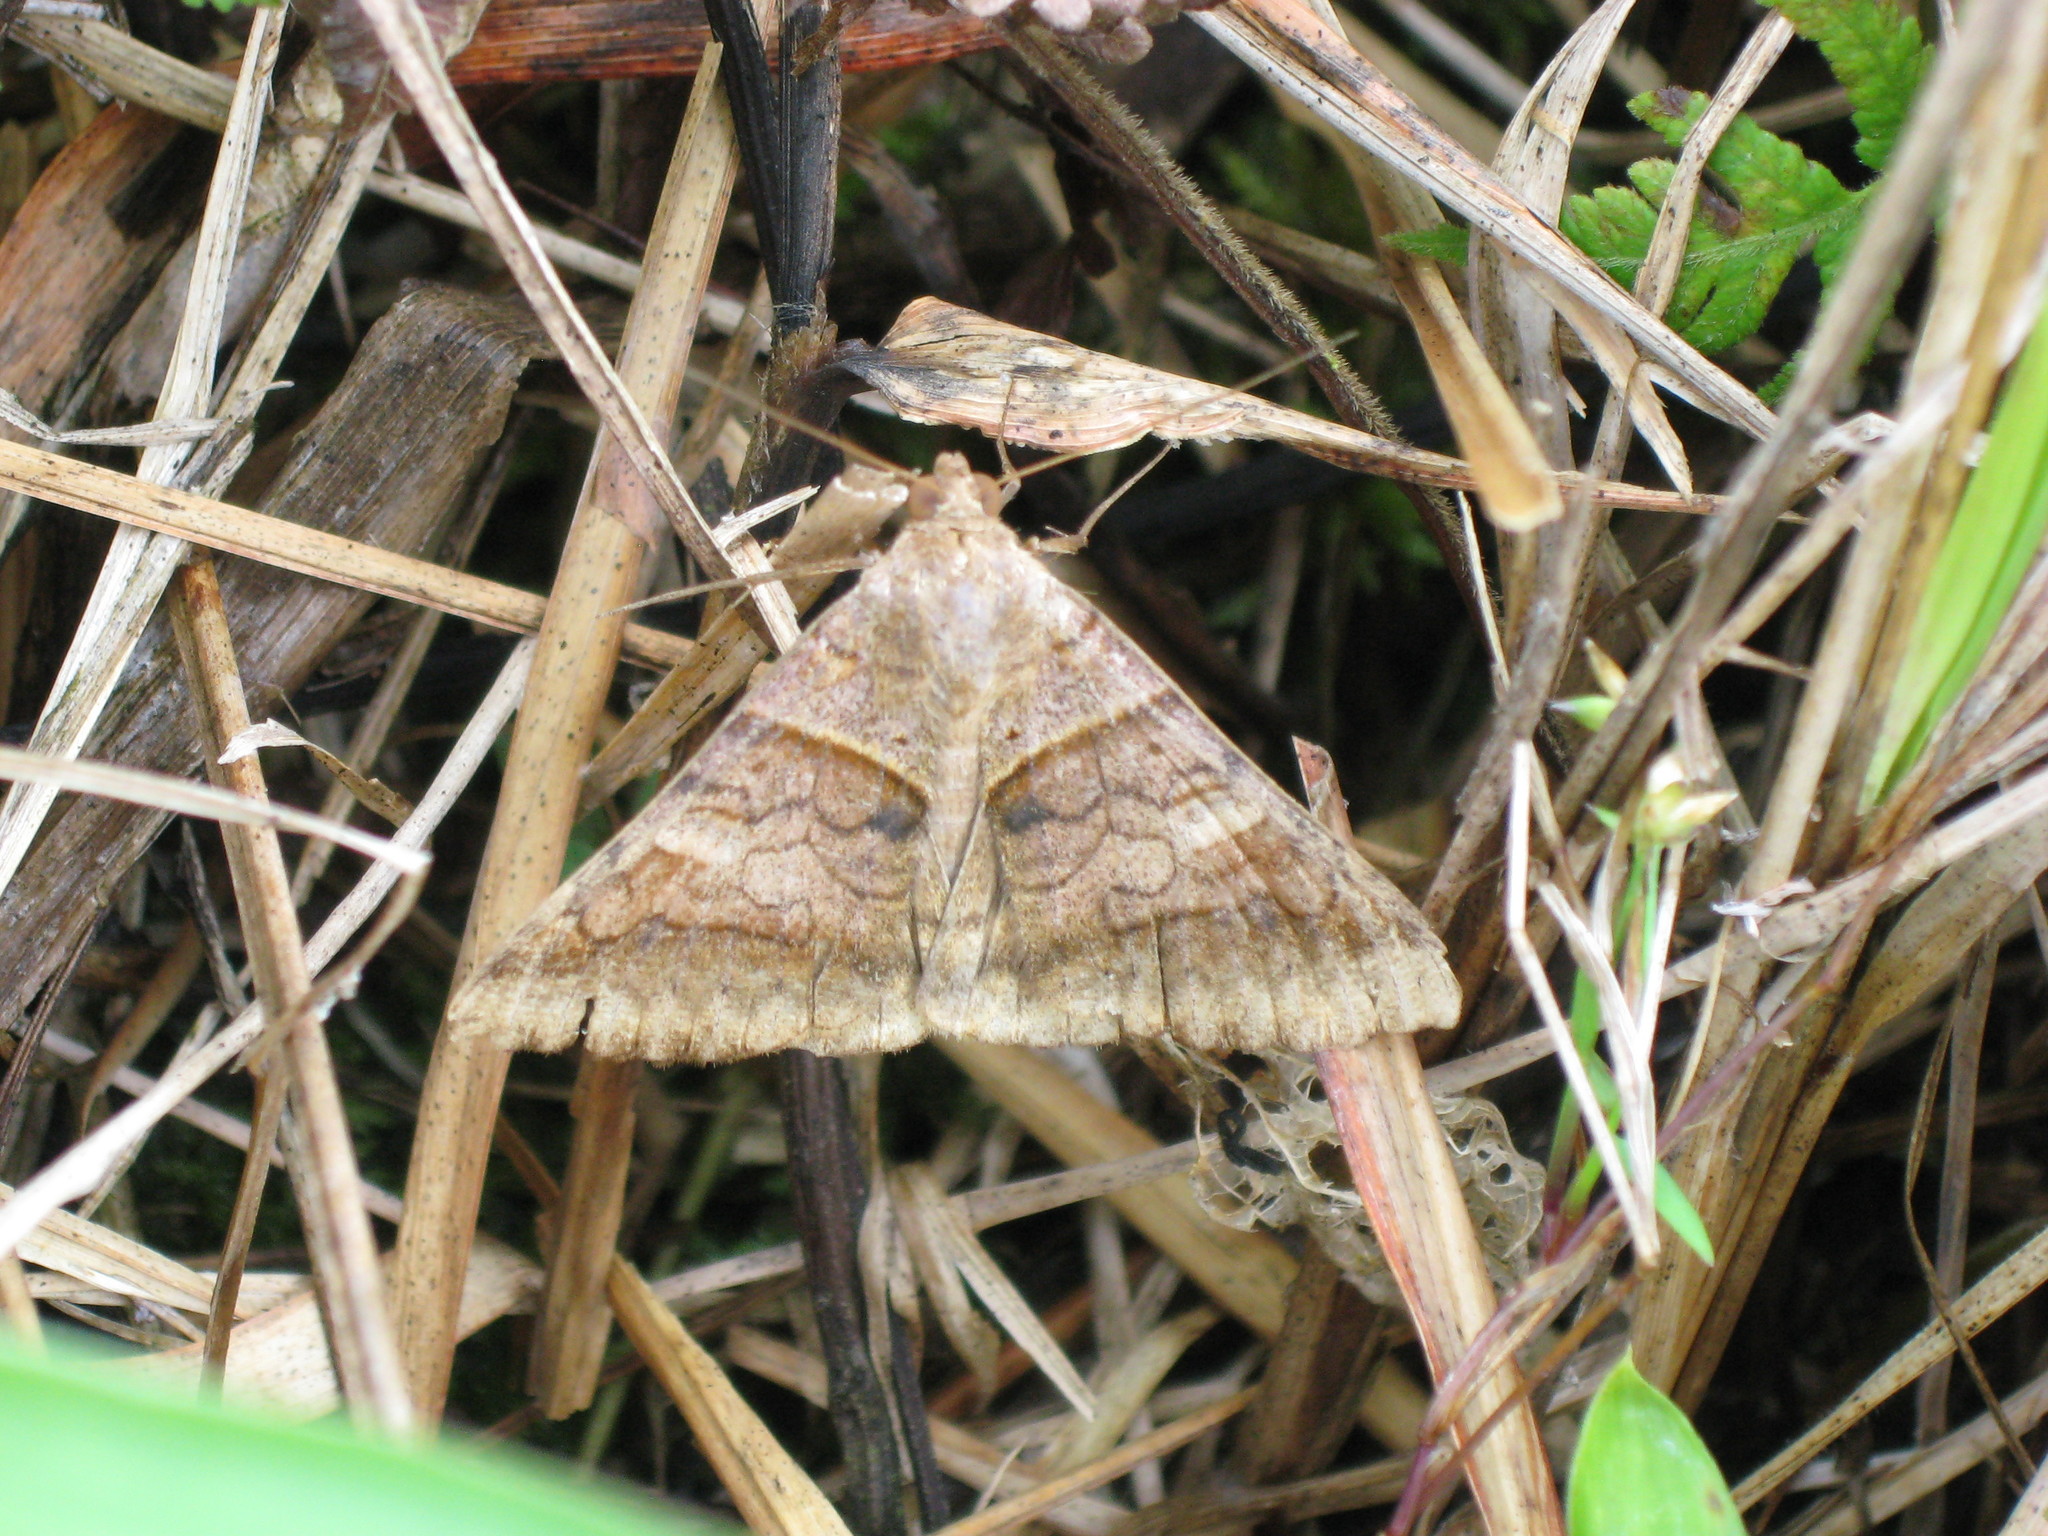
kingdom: Animalia
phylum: Arthropoda
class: Insecta
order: Lepidoptera
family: Erebidae
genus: Mocis
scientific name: Mocis undata
